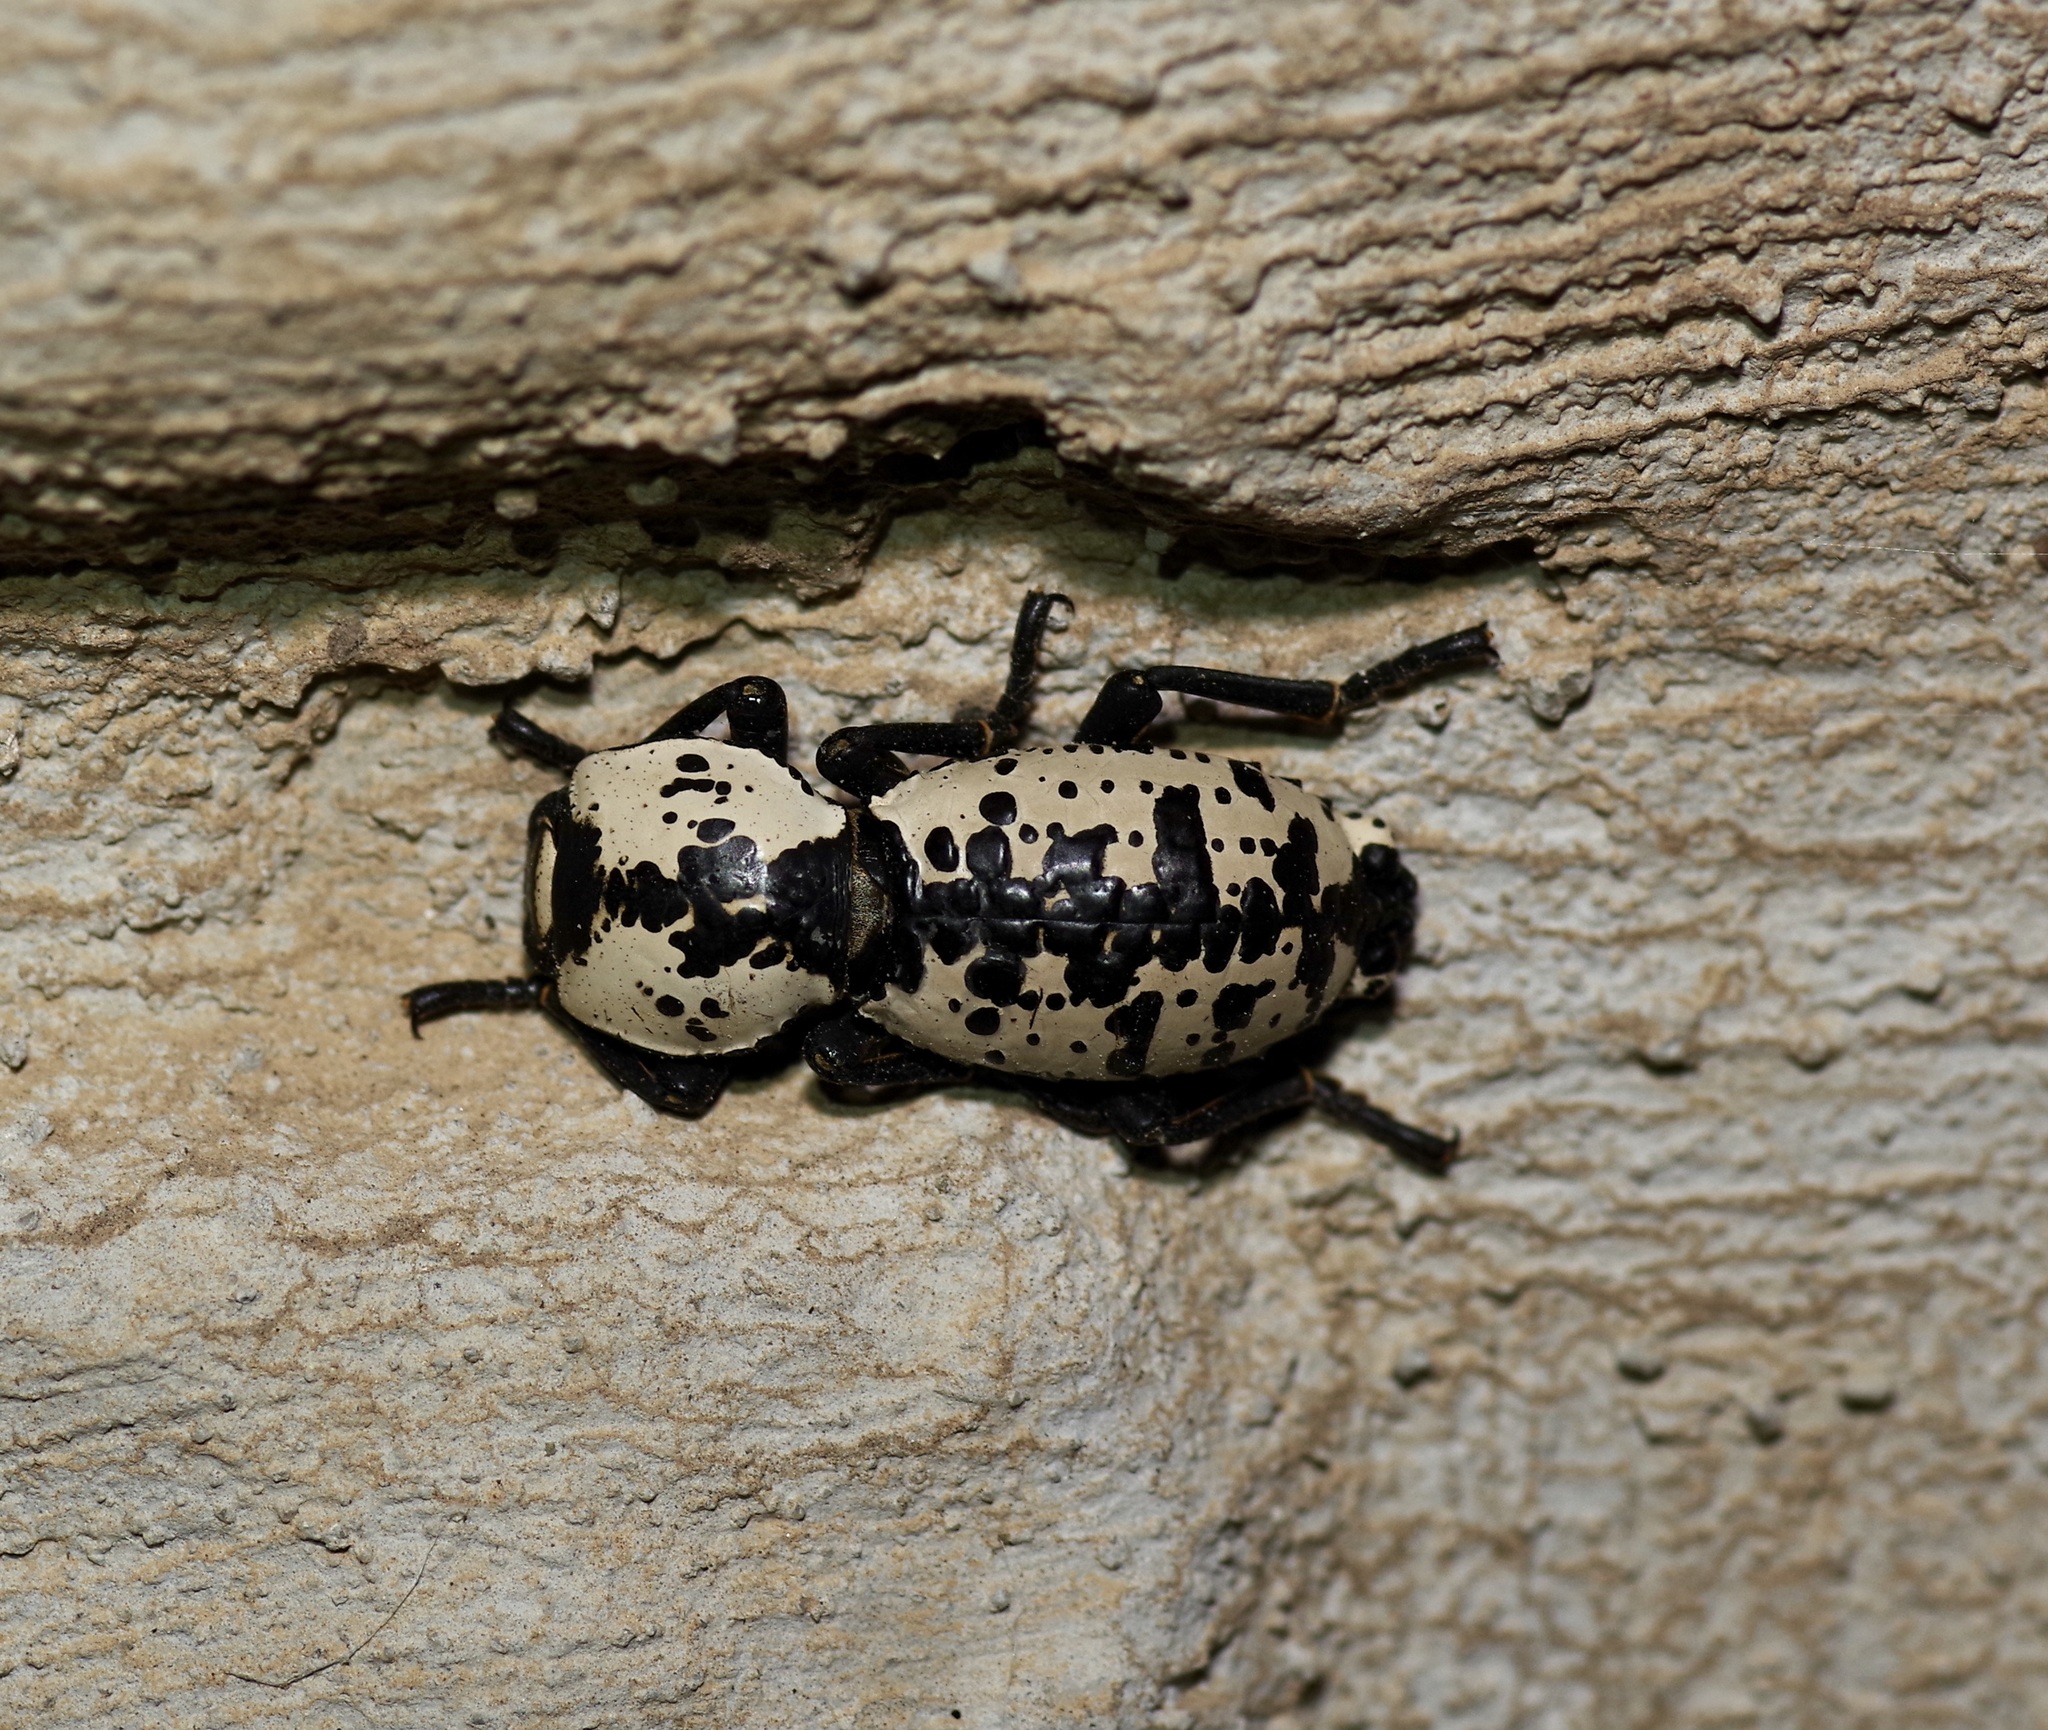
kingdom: Animalia
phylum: Arthropoda
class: Insecta
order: Coleoptera
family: Zopheridae
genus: Zopherus
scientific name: Zopherus nodulosus
